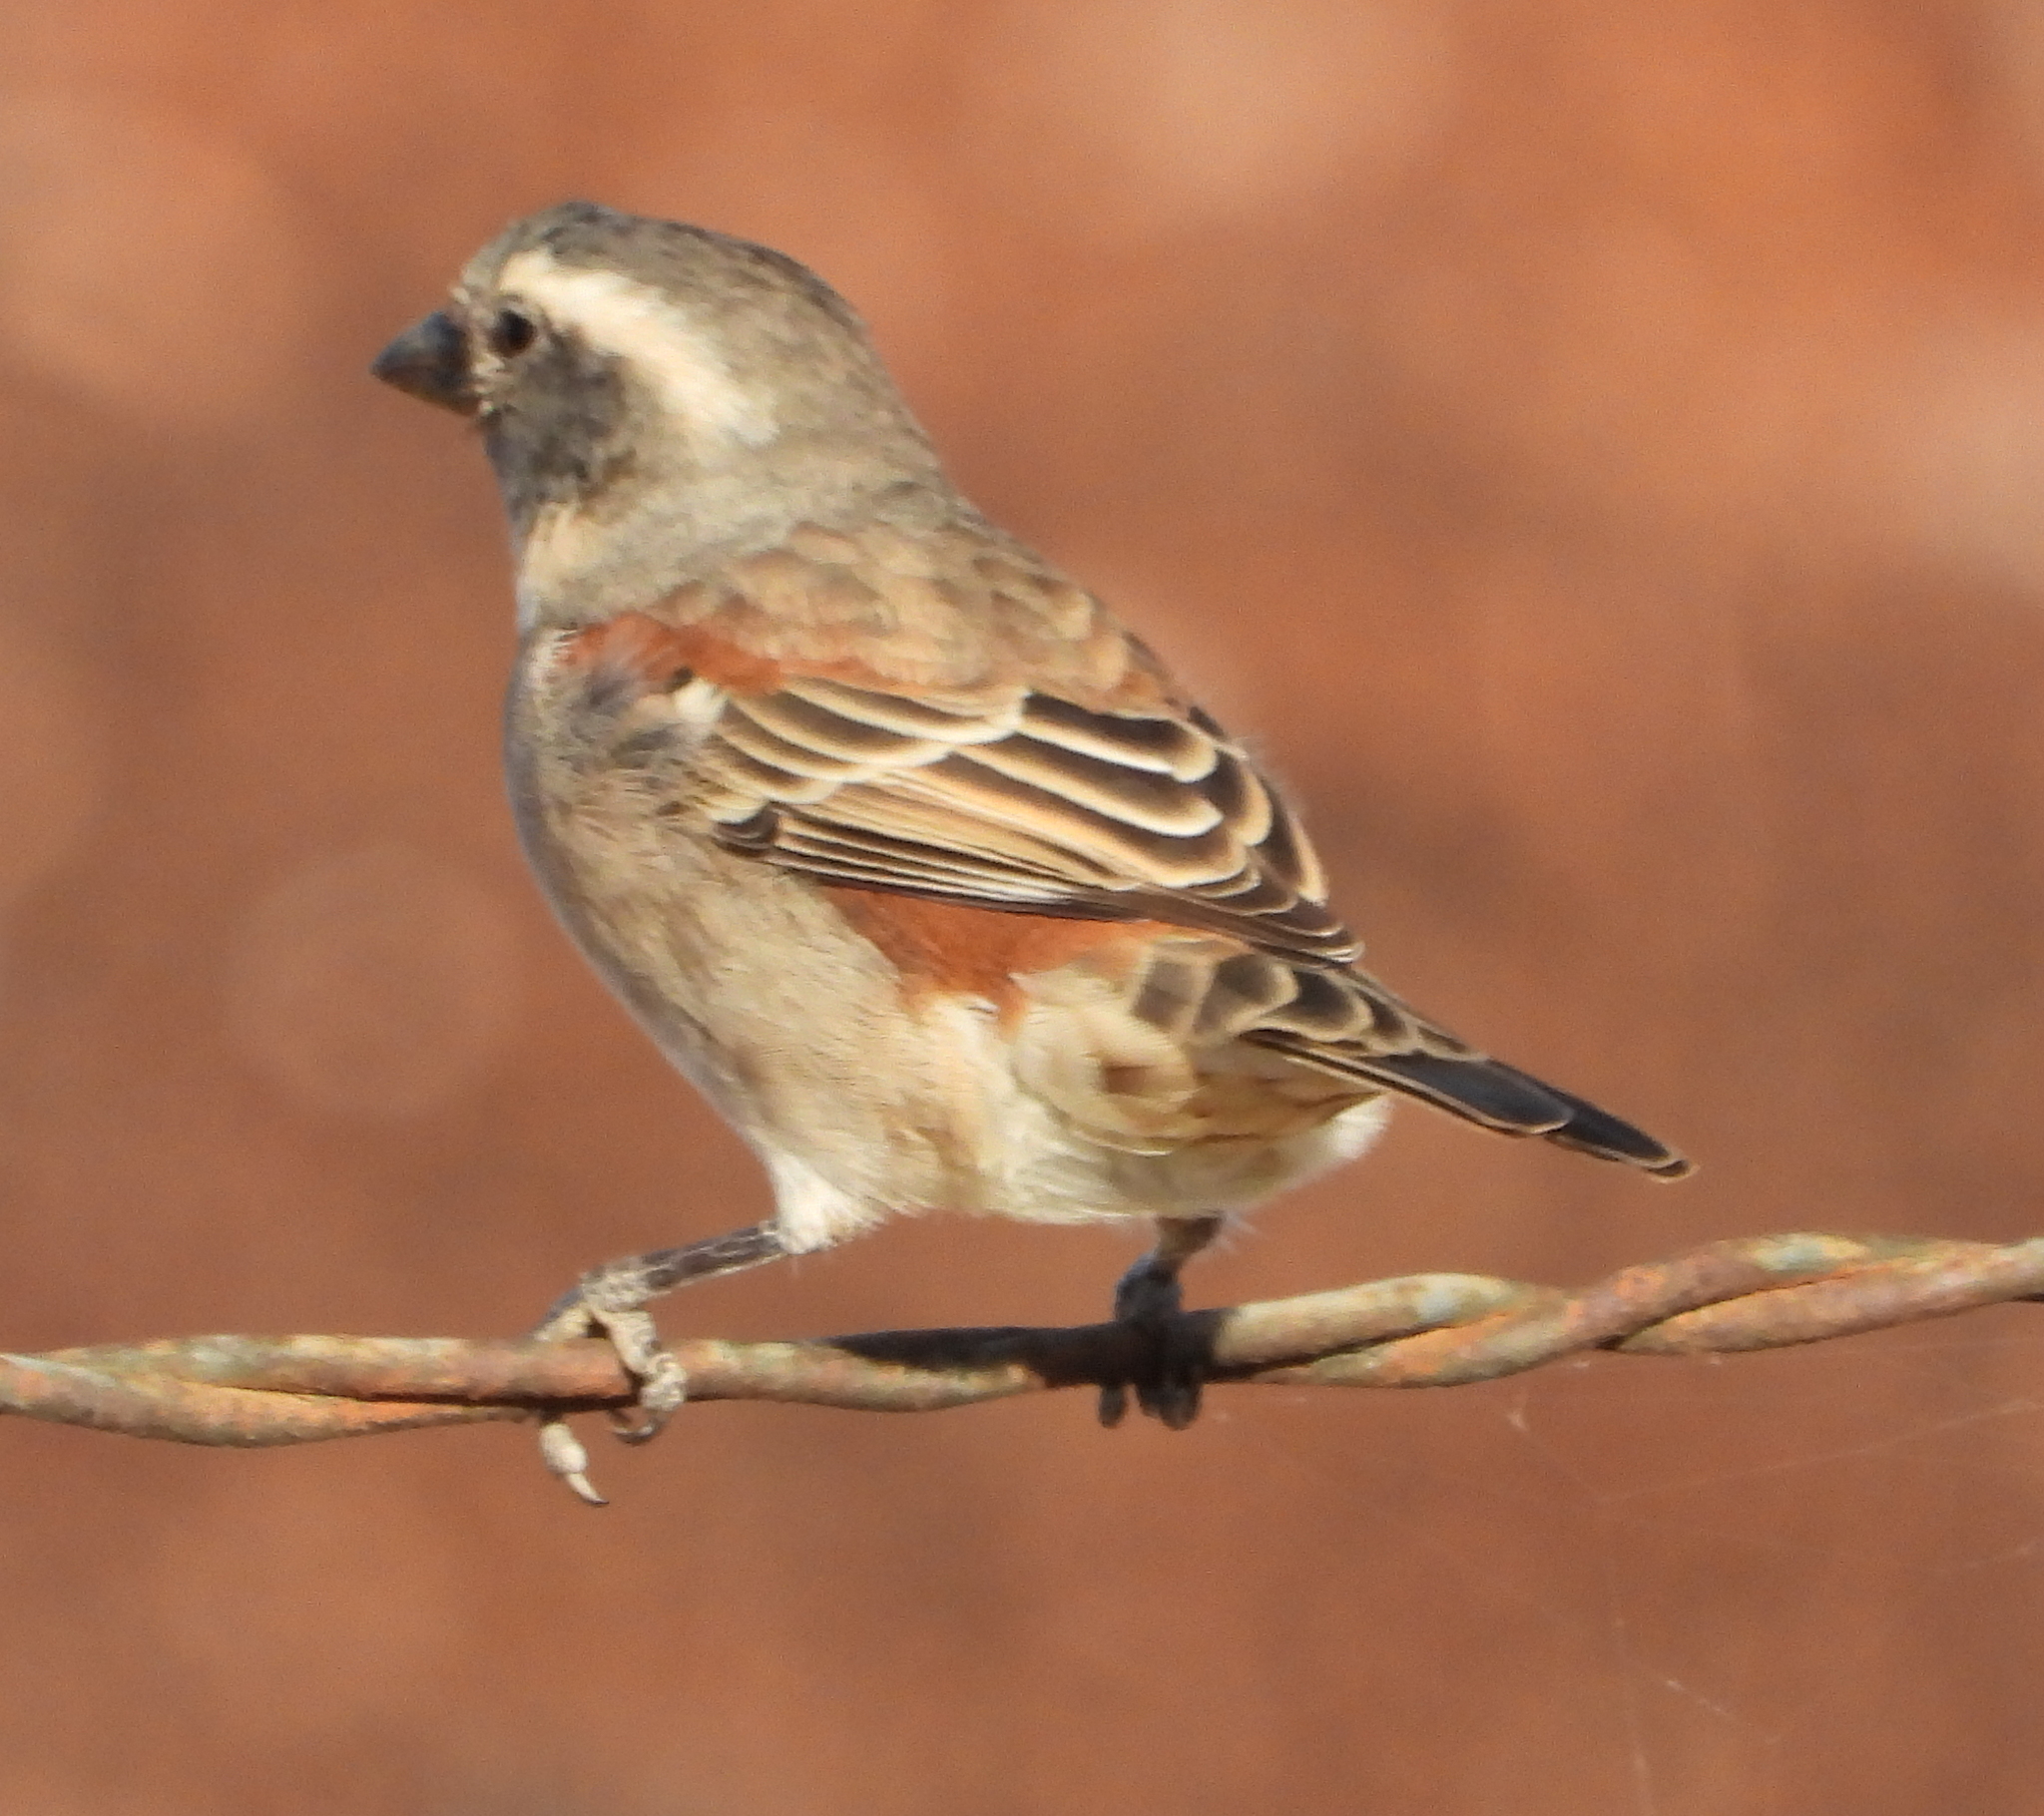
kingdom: Animalia
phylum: Chordata
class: Aves
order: Passeriformes
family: Passeridae
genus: Passer
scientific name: Passer melanurus
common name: Cape sparrow
